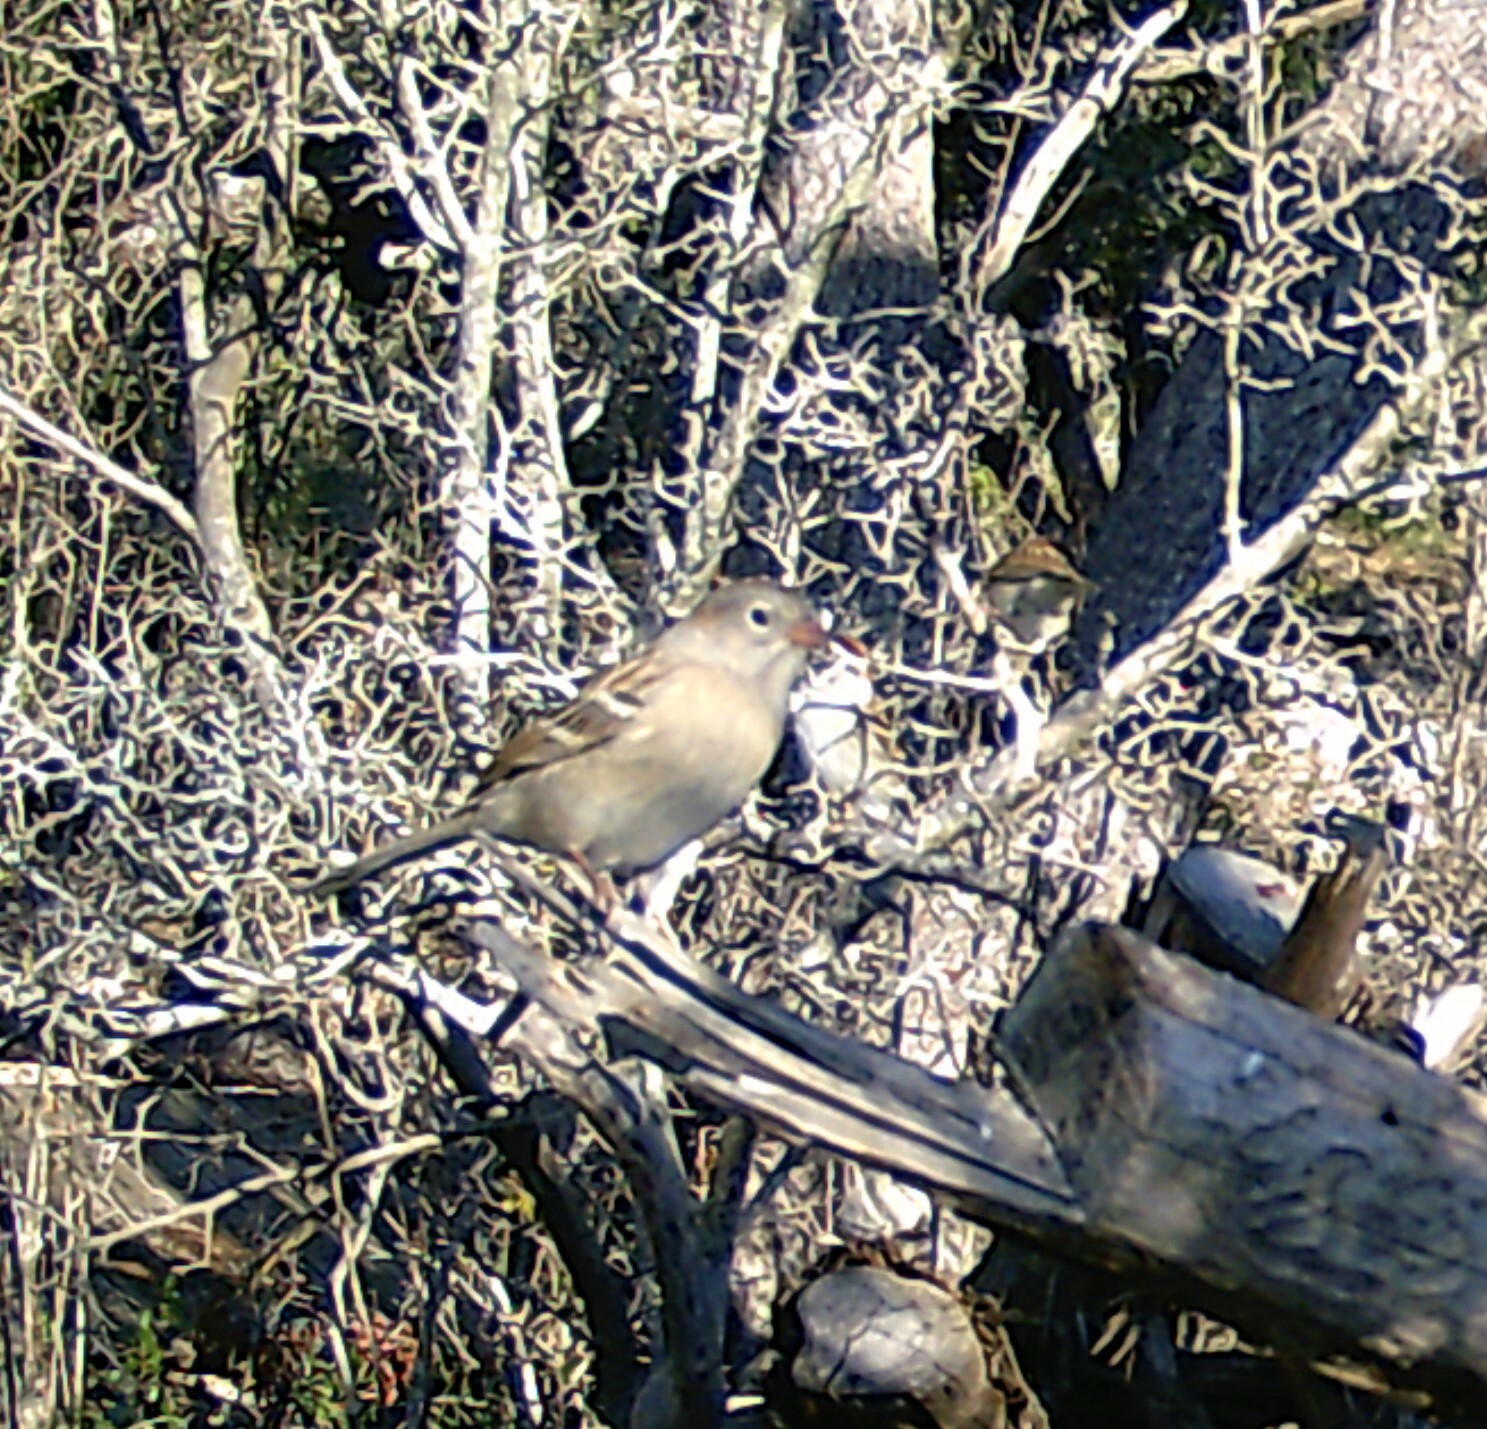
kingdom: Animalia
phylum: Chordata
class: Aves
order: Passeriformes
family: Passerellidae
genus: Spizella
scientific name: Spizella pusilla
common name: Field sparrow
